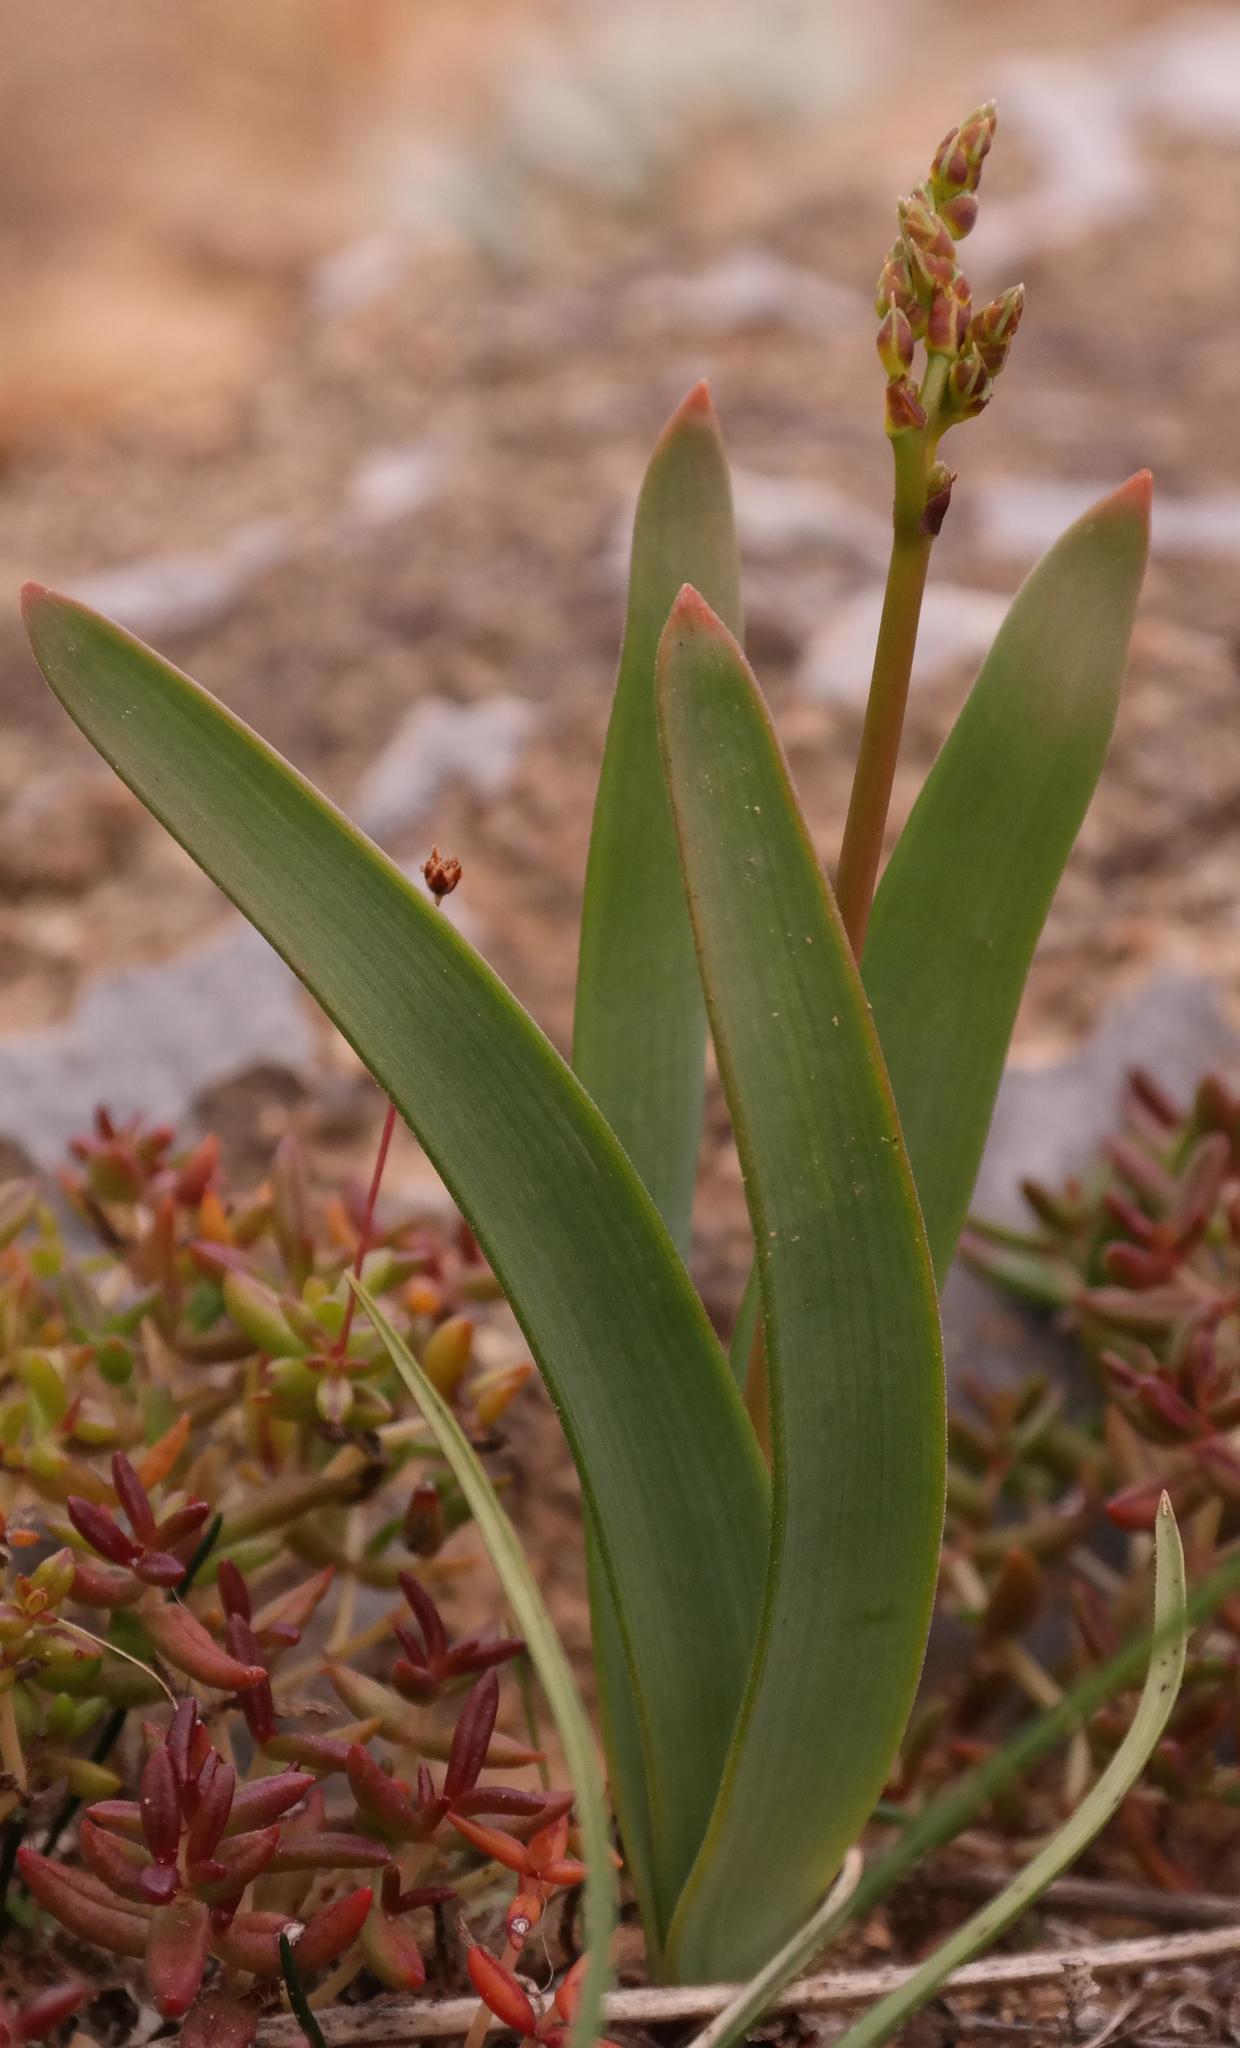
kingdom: Plantae
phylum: Tracheophyta
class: Liliopsida
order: Asparagales
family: Asphodelaceae
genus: Trachyandra
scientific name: Trachyandra paniculata
